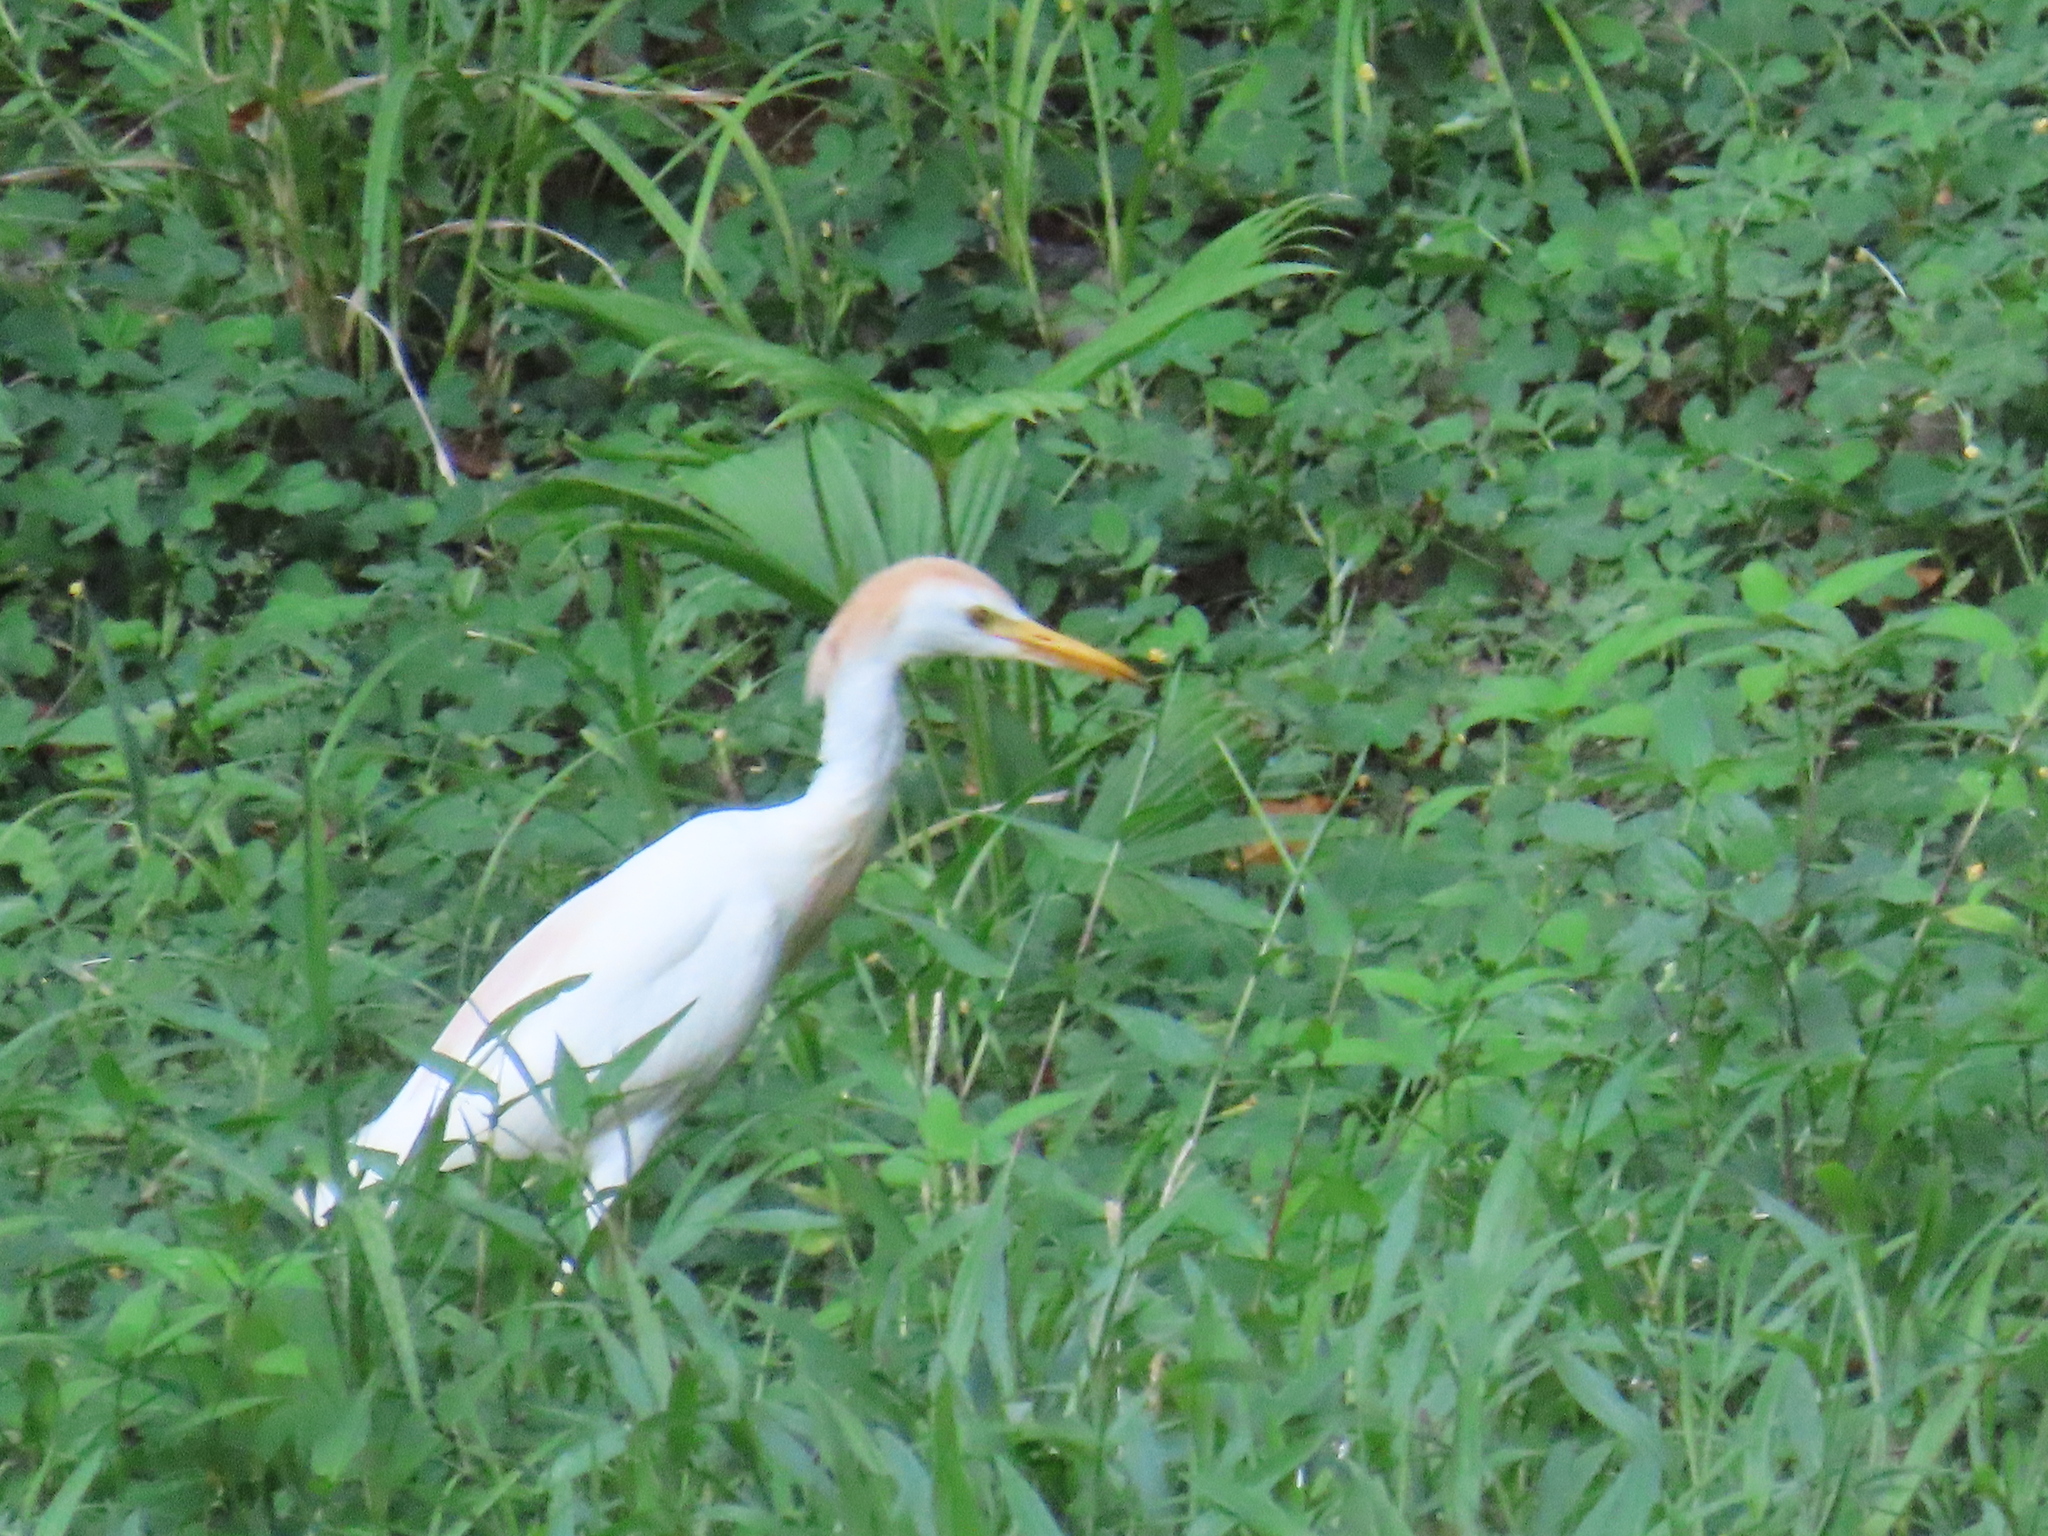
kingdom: Animalia
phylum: Chordata
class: Aves
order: Pelecaniformes
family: Ardeidae
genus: Bubulcus
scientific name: Bubulcus ibis
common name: Cattle egret
